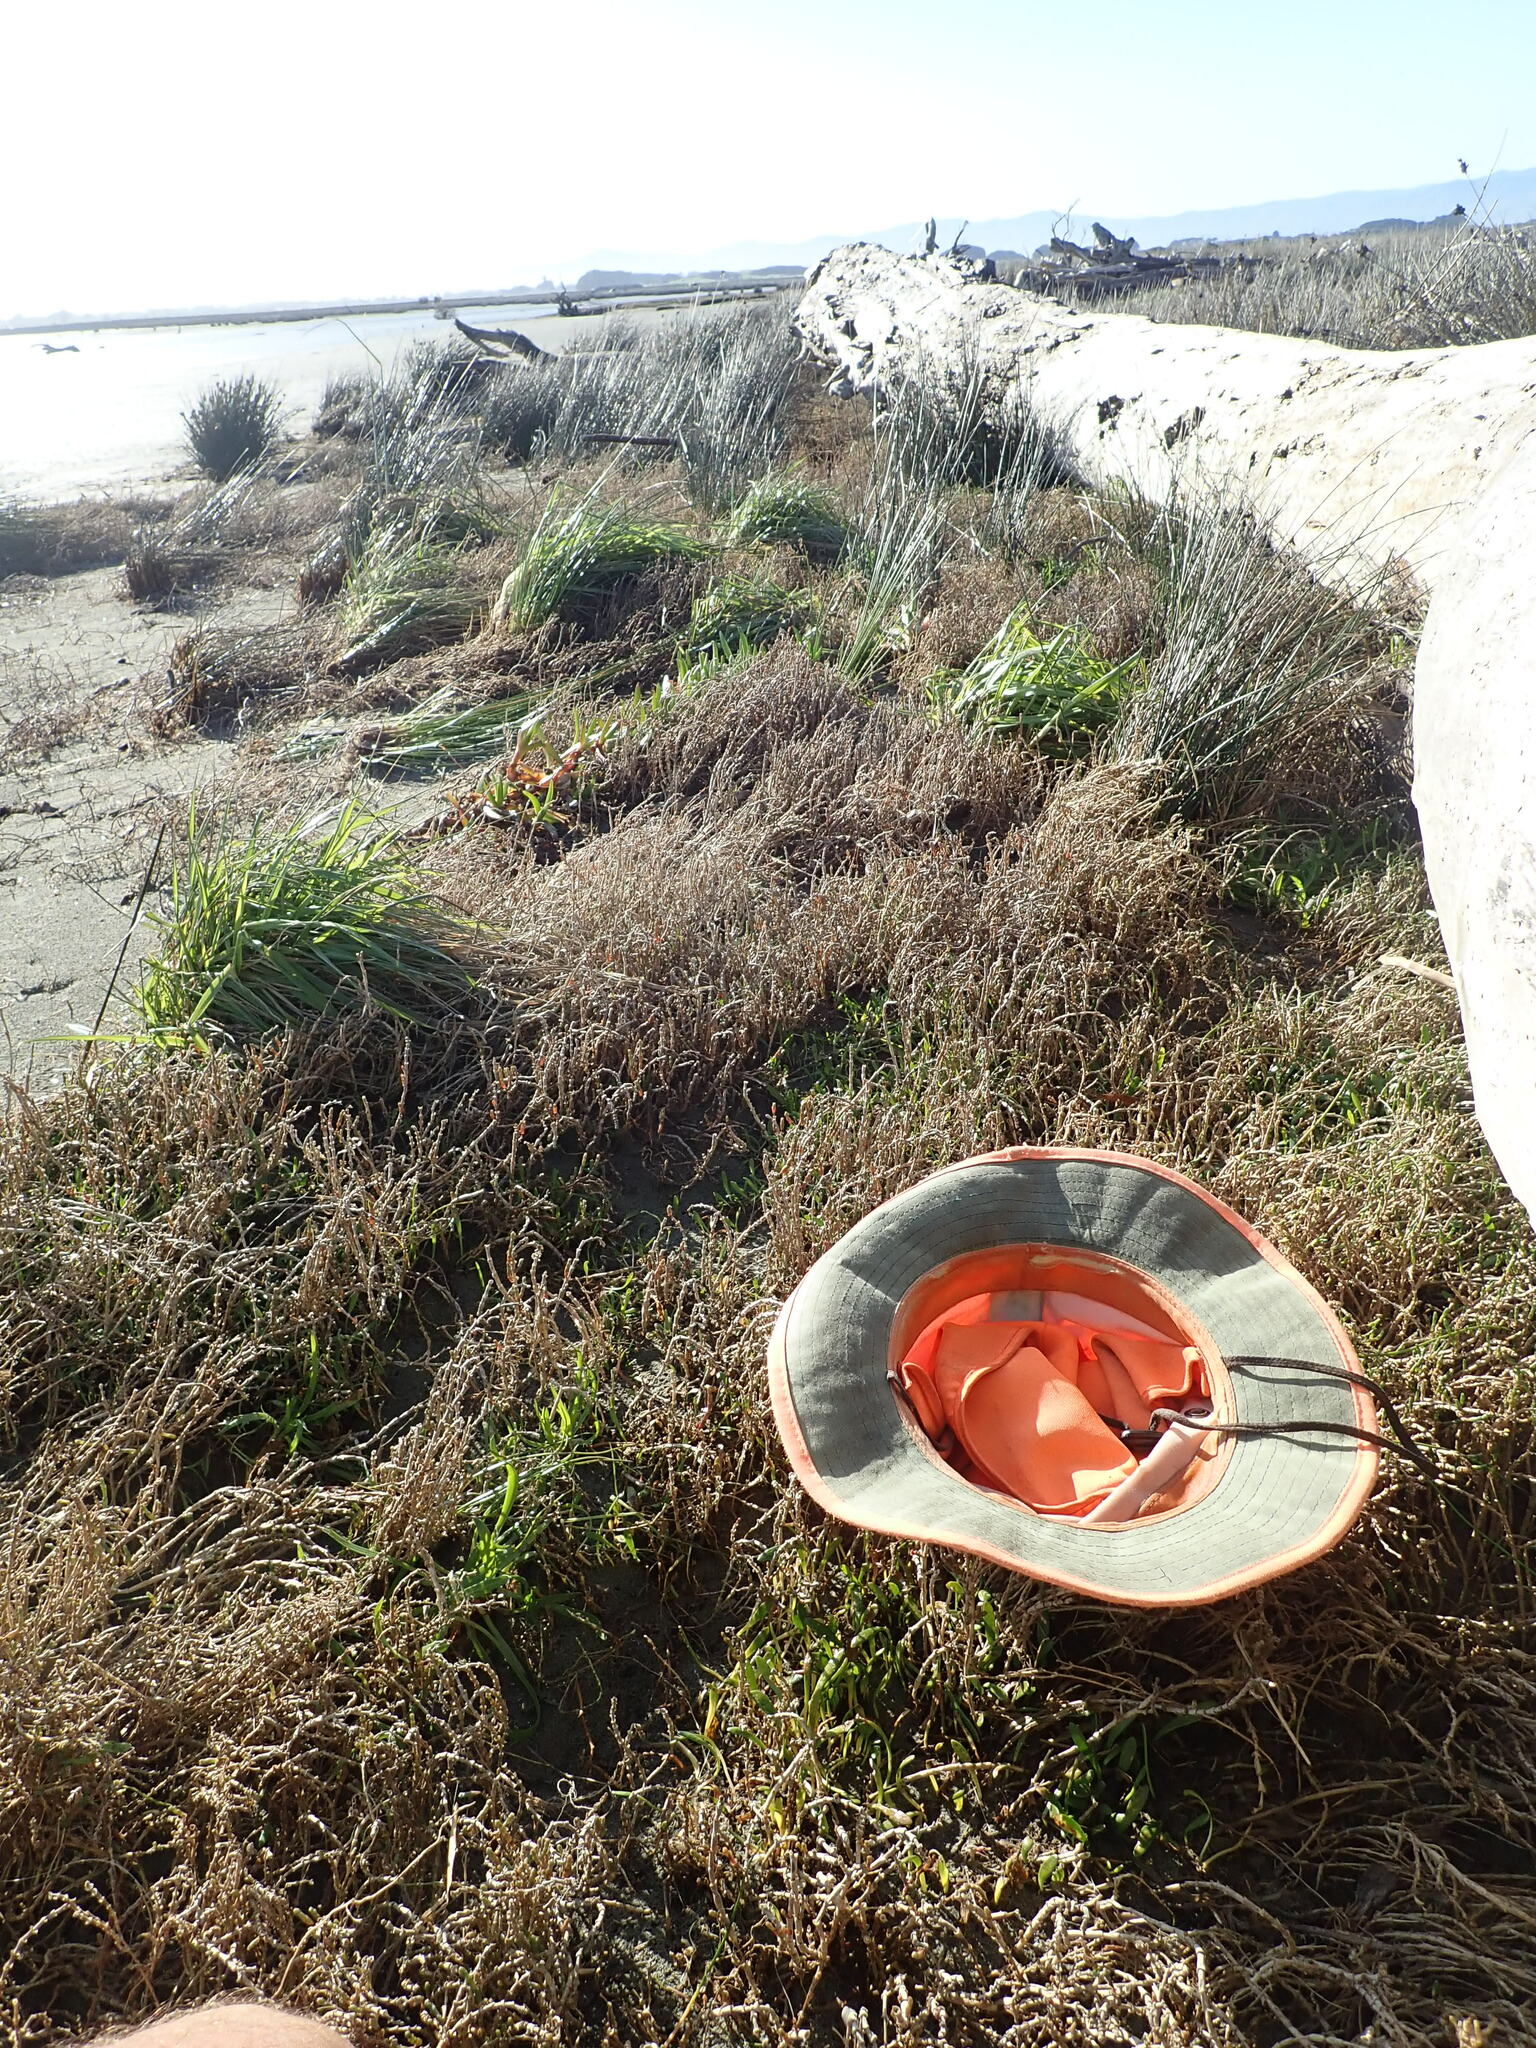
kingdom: Plantae
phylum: Tracheophyta
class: Magnoliopsida
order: Caryophyllales
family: Amaranthaceae
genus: Salicornia
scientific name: Salicornia quinqueflora
